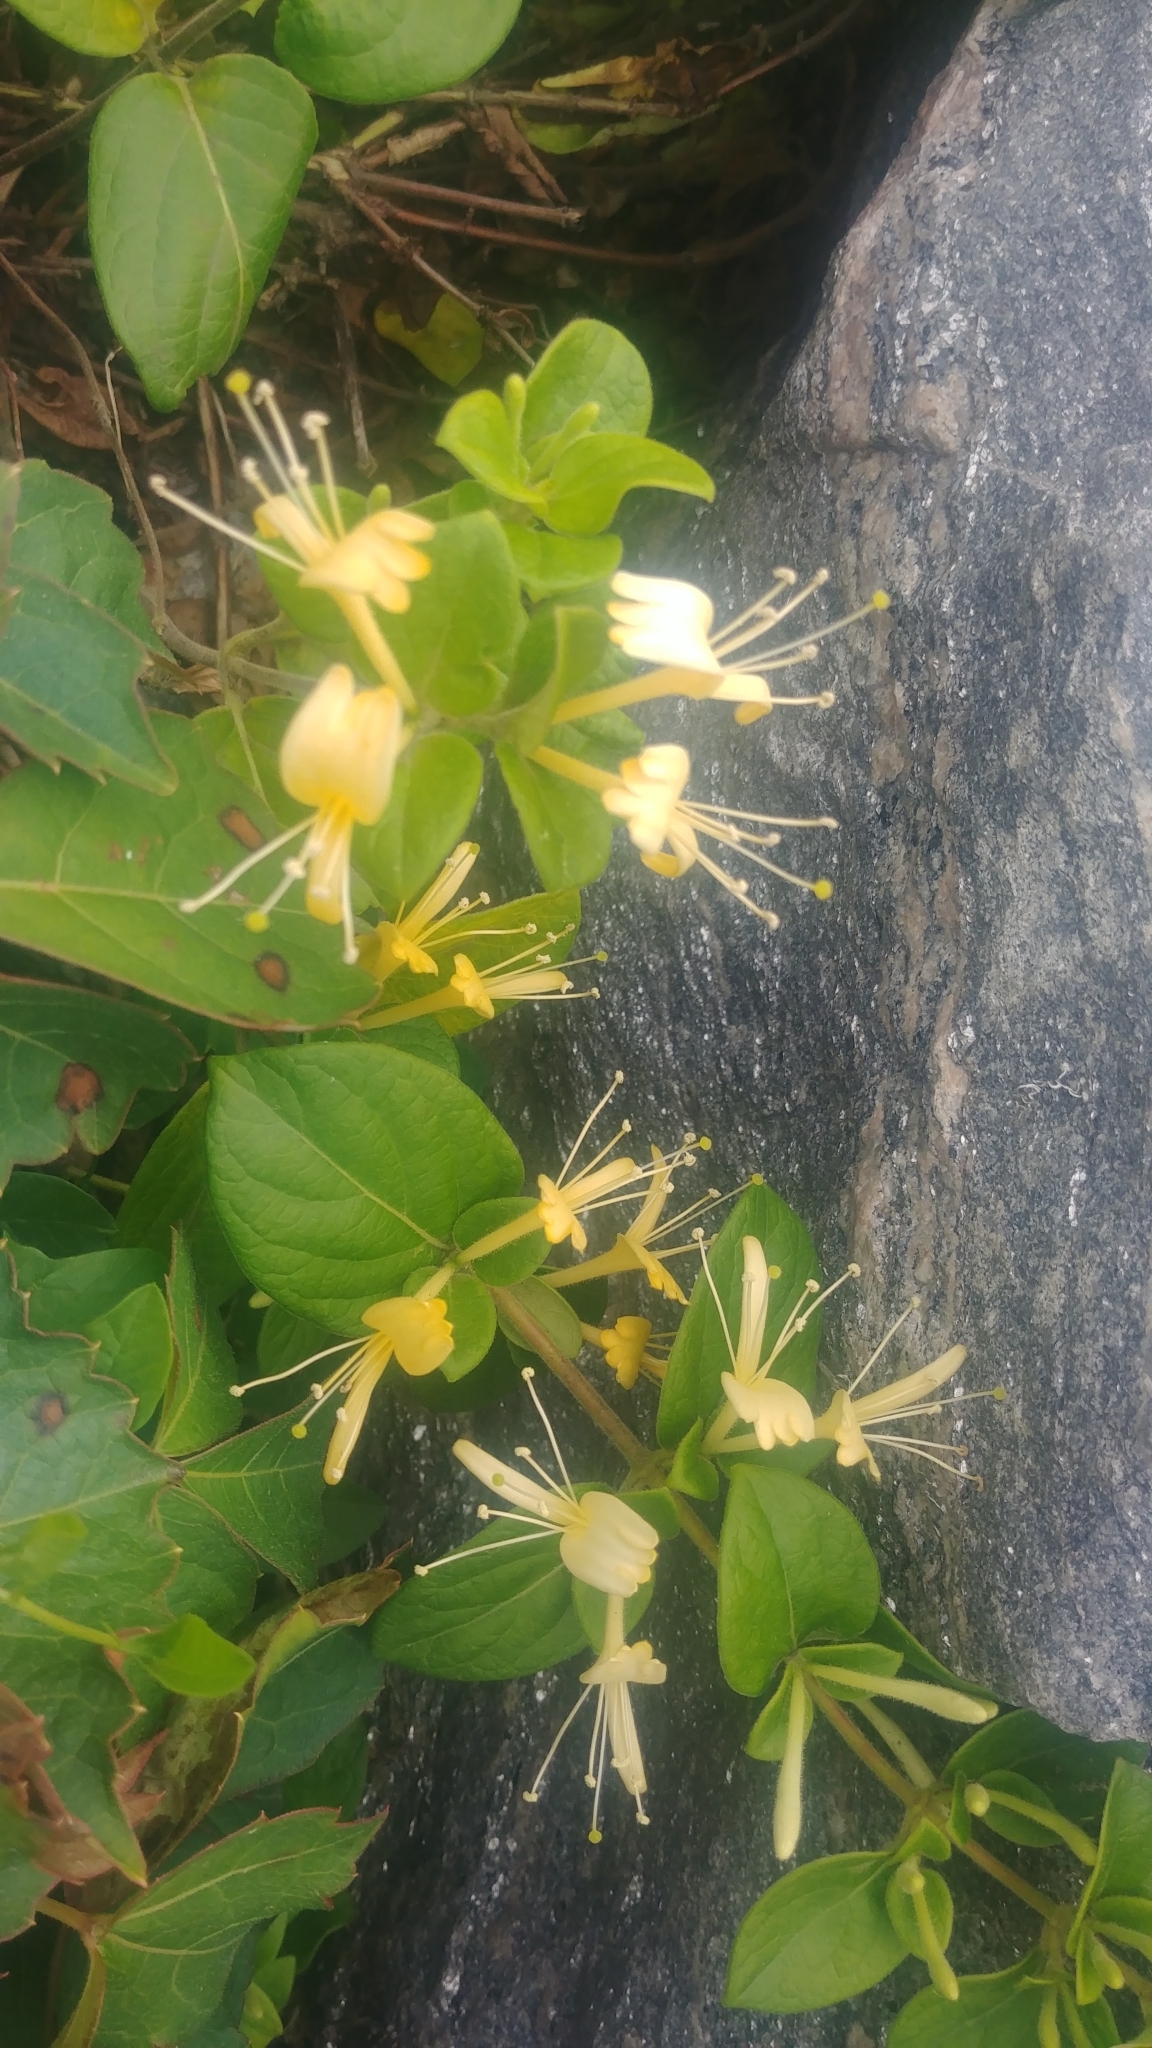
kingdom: Plantae
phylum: Tracheophyta
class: Magnoliopsida
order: Dipsacales
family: Caprifoliaceae
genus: Lonicera
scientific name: Lonicera japonica
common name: Japanese honeysuckle
